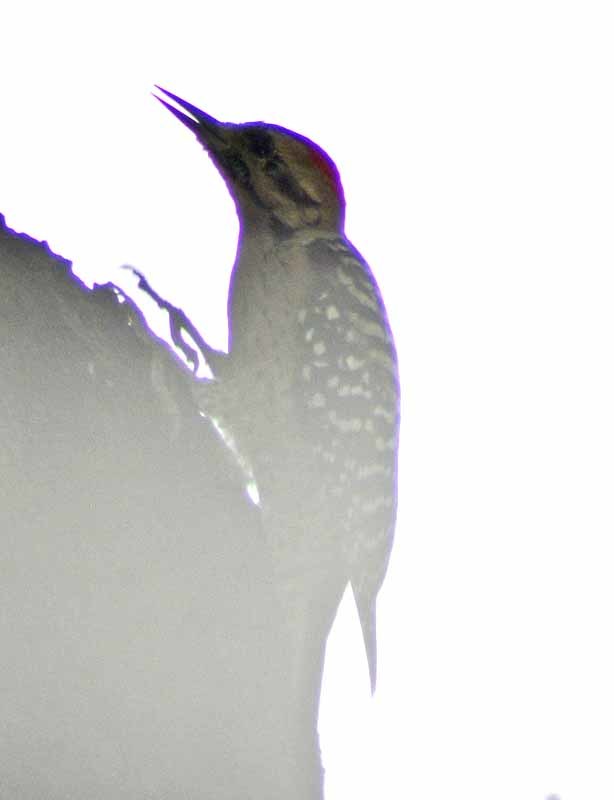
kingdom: Animalia
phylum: Chordata
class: Aves
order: Piciformes
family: Picidae
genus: Dryobates
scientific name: Dryobates scalaris
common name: Ladder-backed woodpecker
